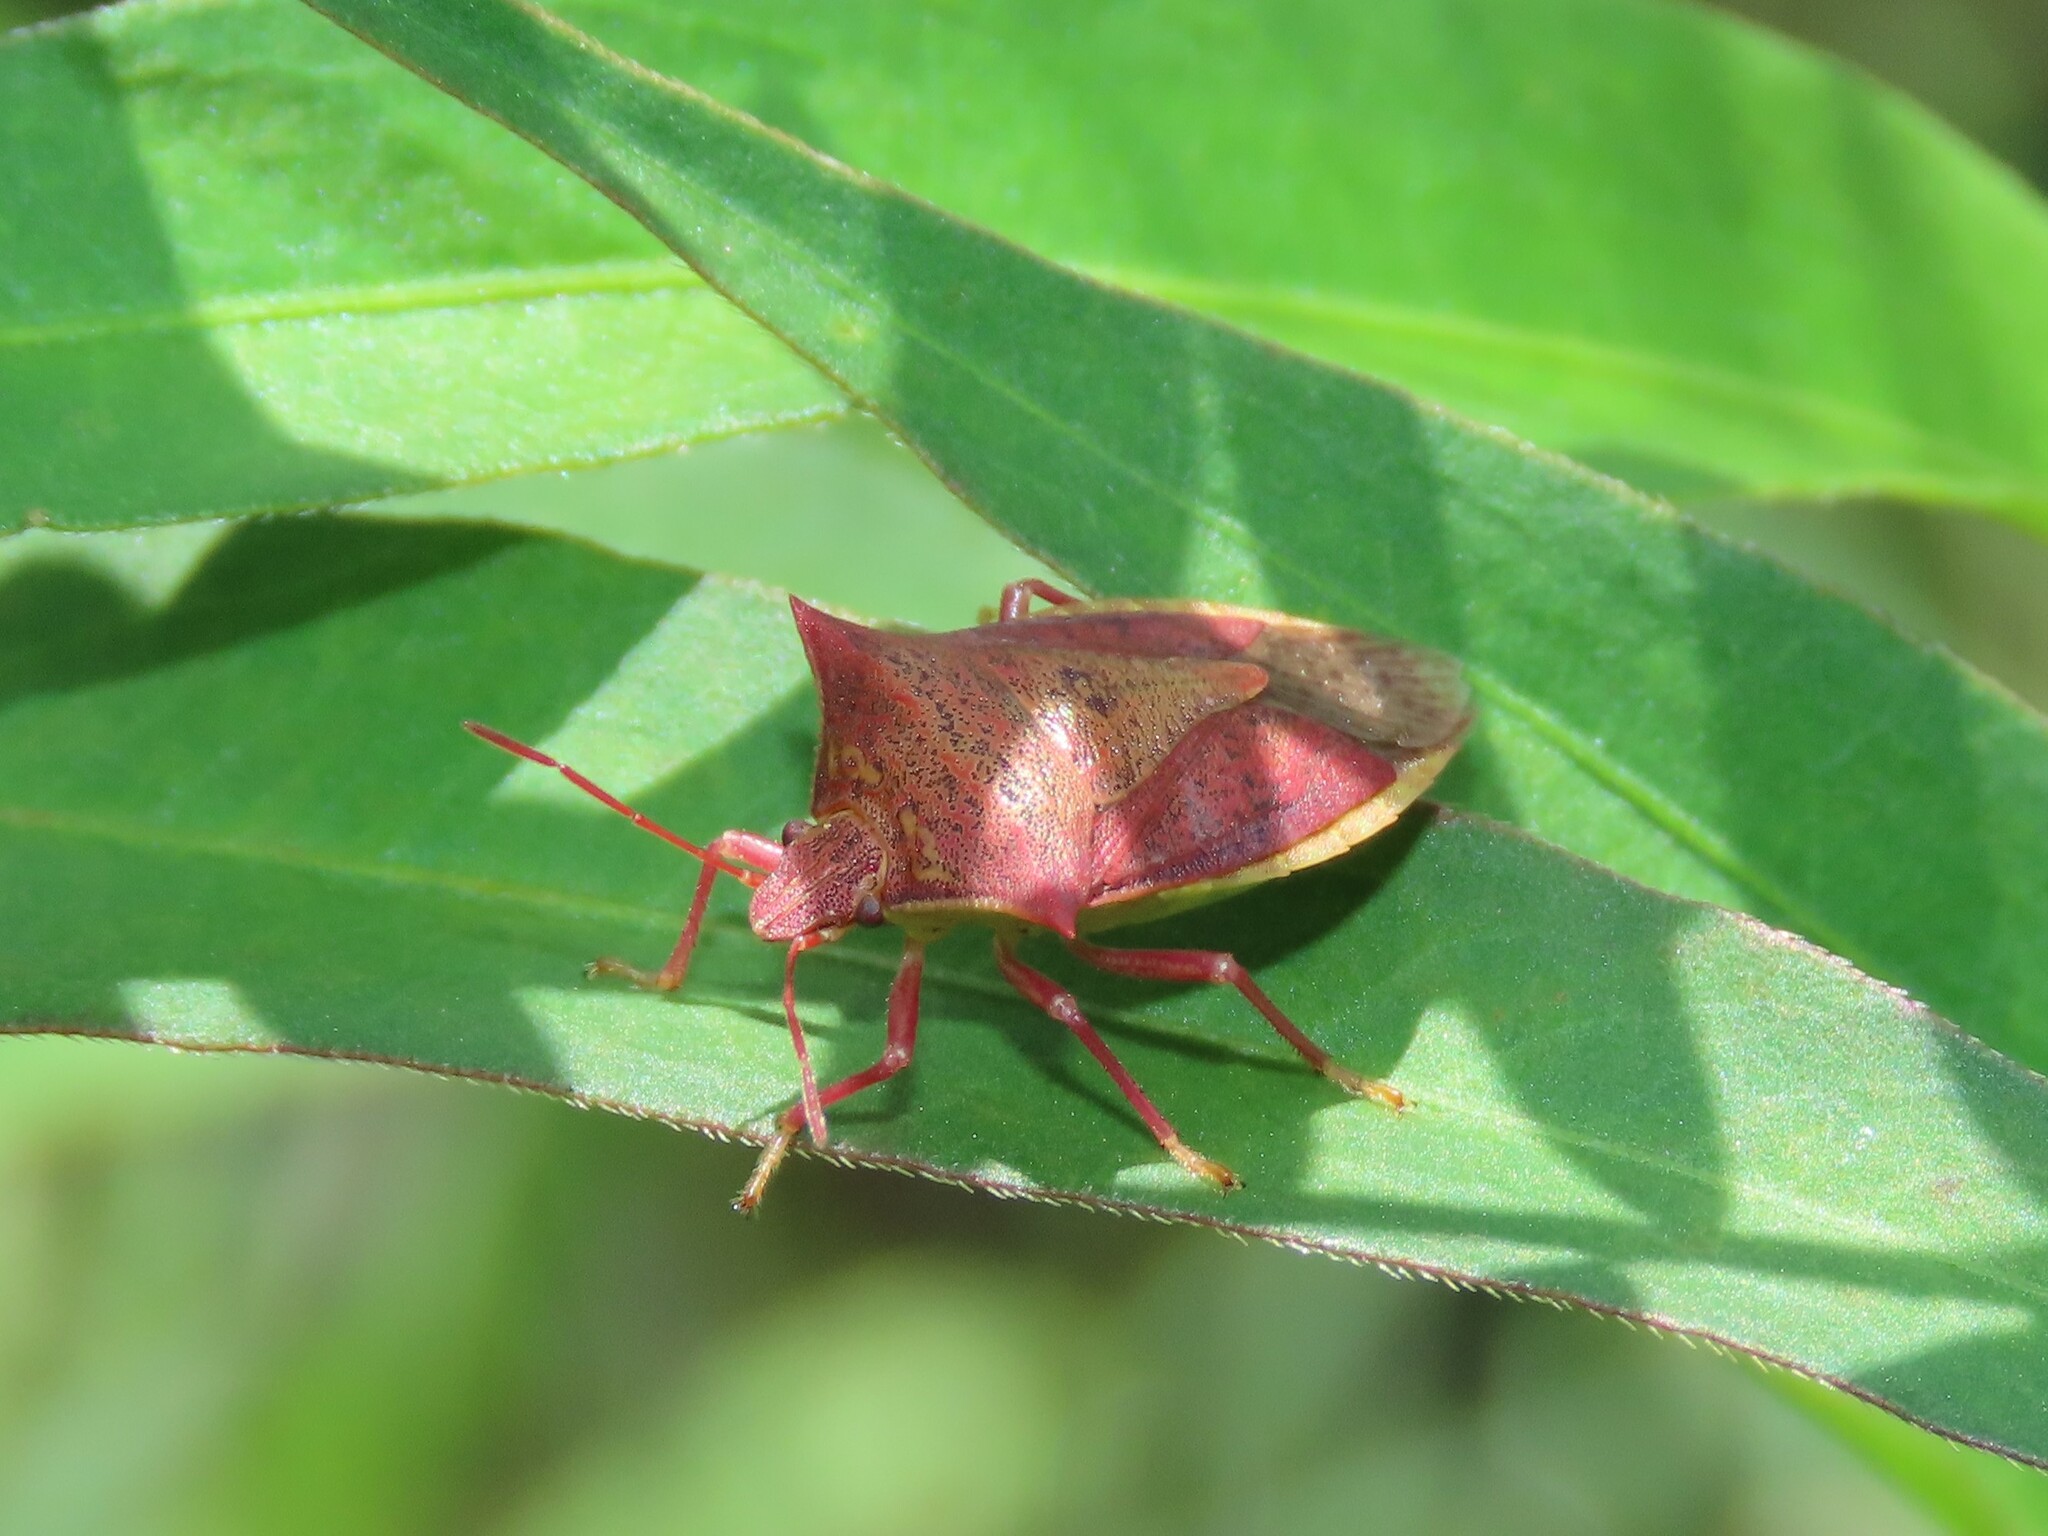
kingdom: Animalia
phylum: Arthropoda
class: Insecta
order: Hemiptera
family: Pentatomidae
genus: Euschistus
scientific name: Euschistus ictericus
